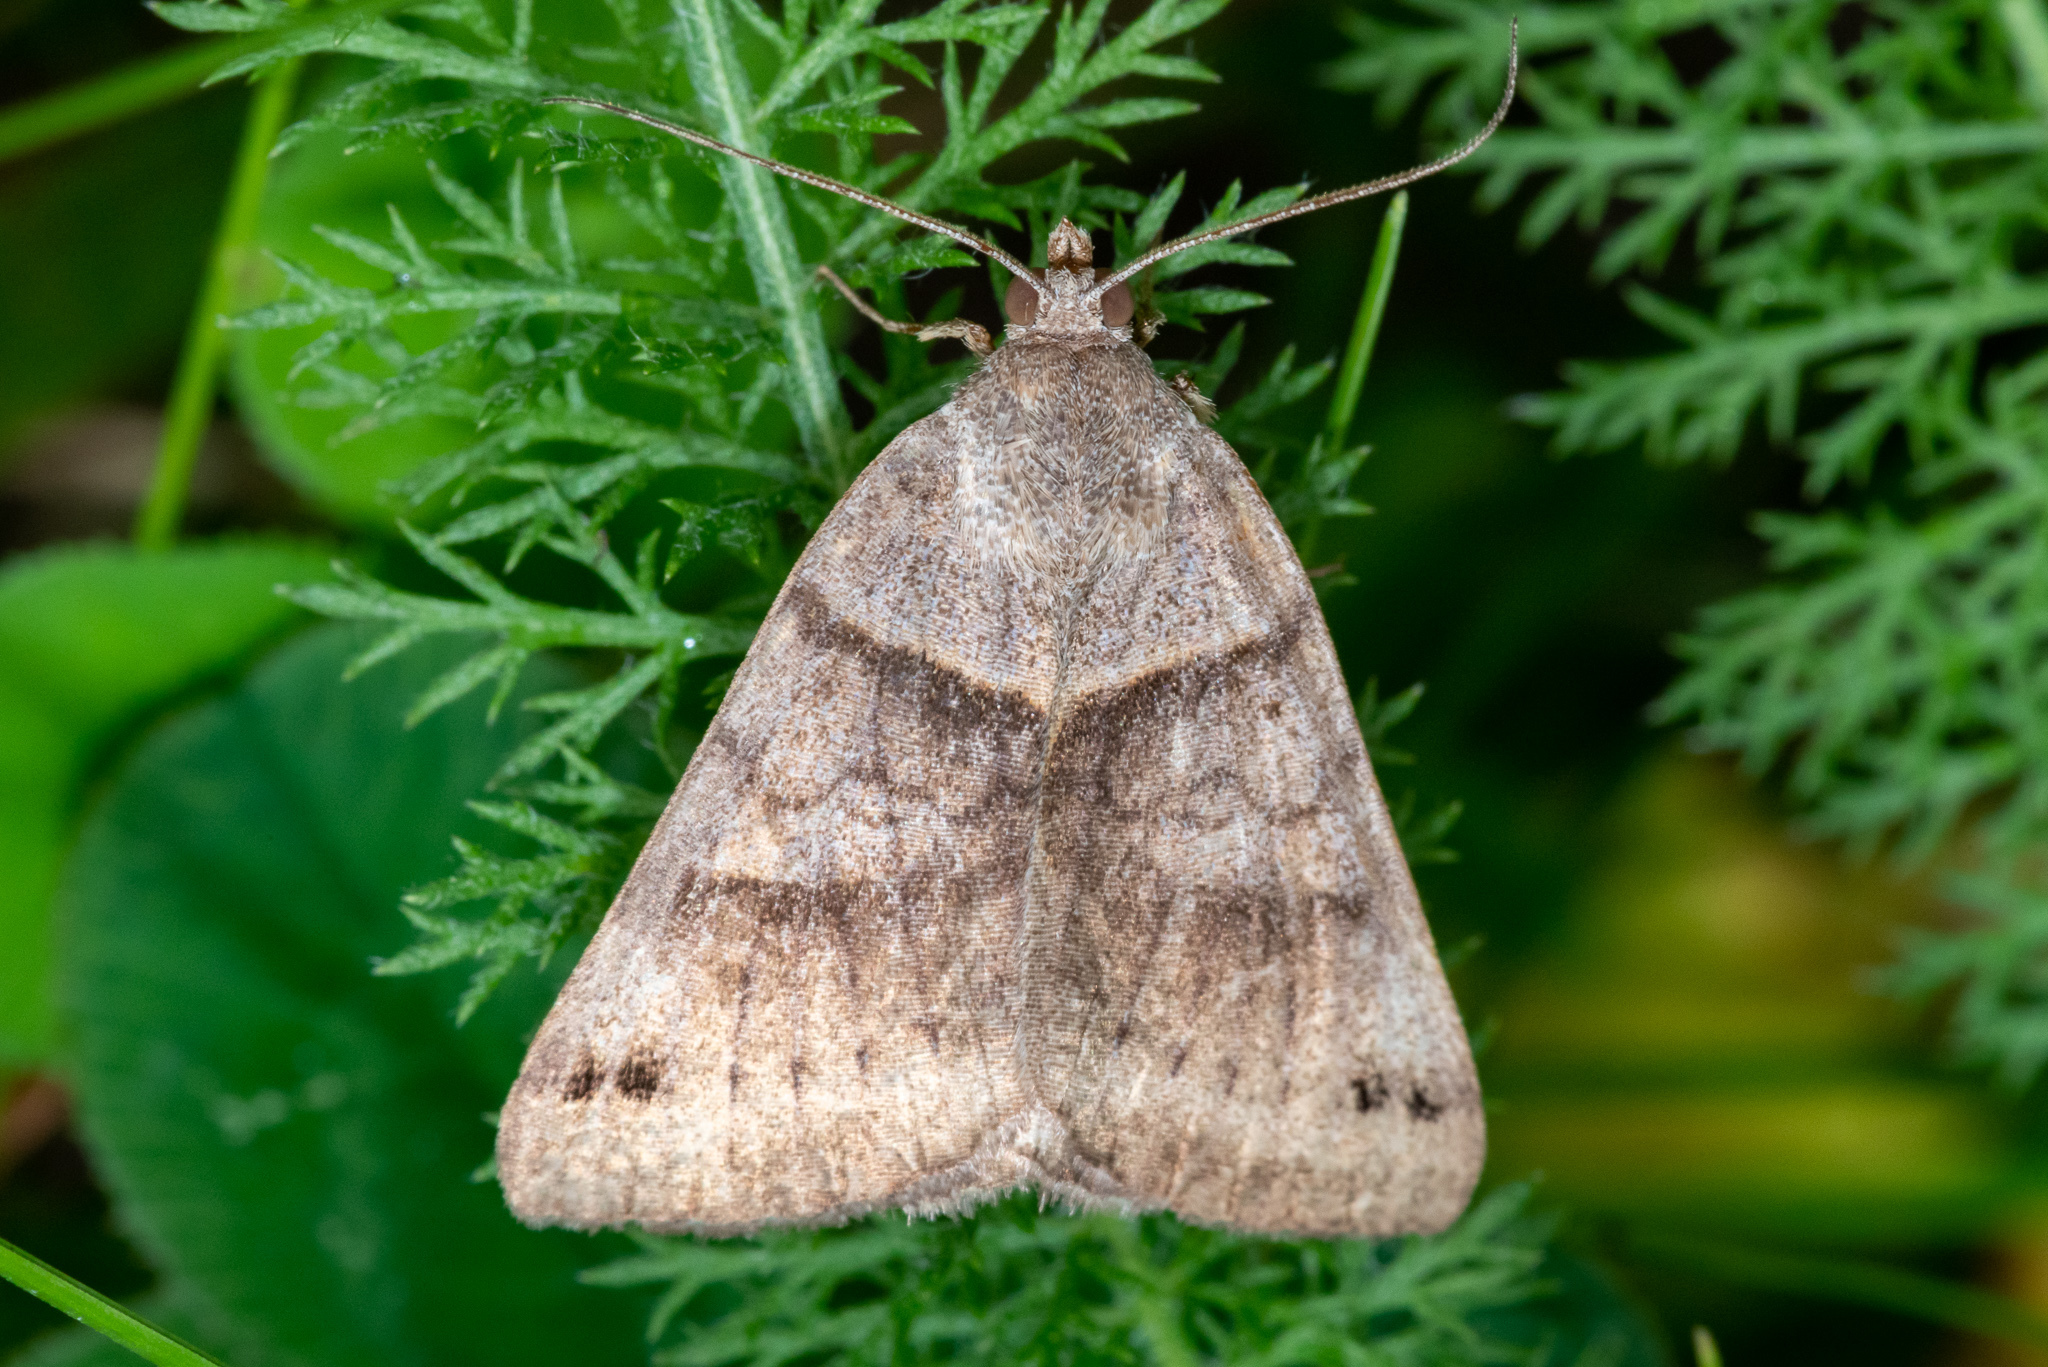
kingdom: Animalia
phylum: Arthropoda
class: Insecta
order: Lepidoptera
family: Erebidae
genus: Caenurgina
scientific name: Caenurgina crassiuscula
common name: Double-barred
